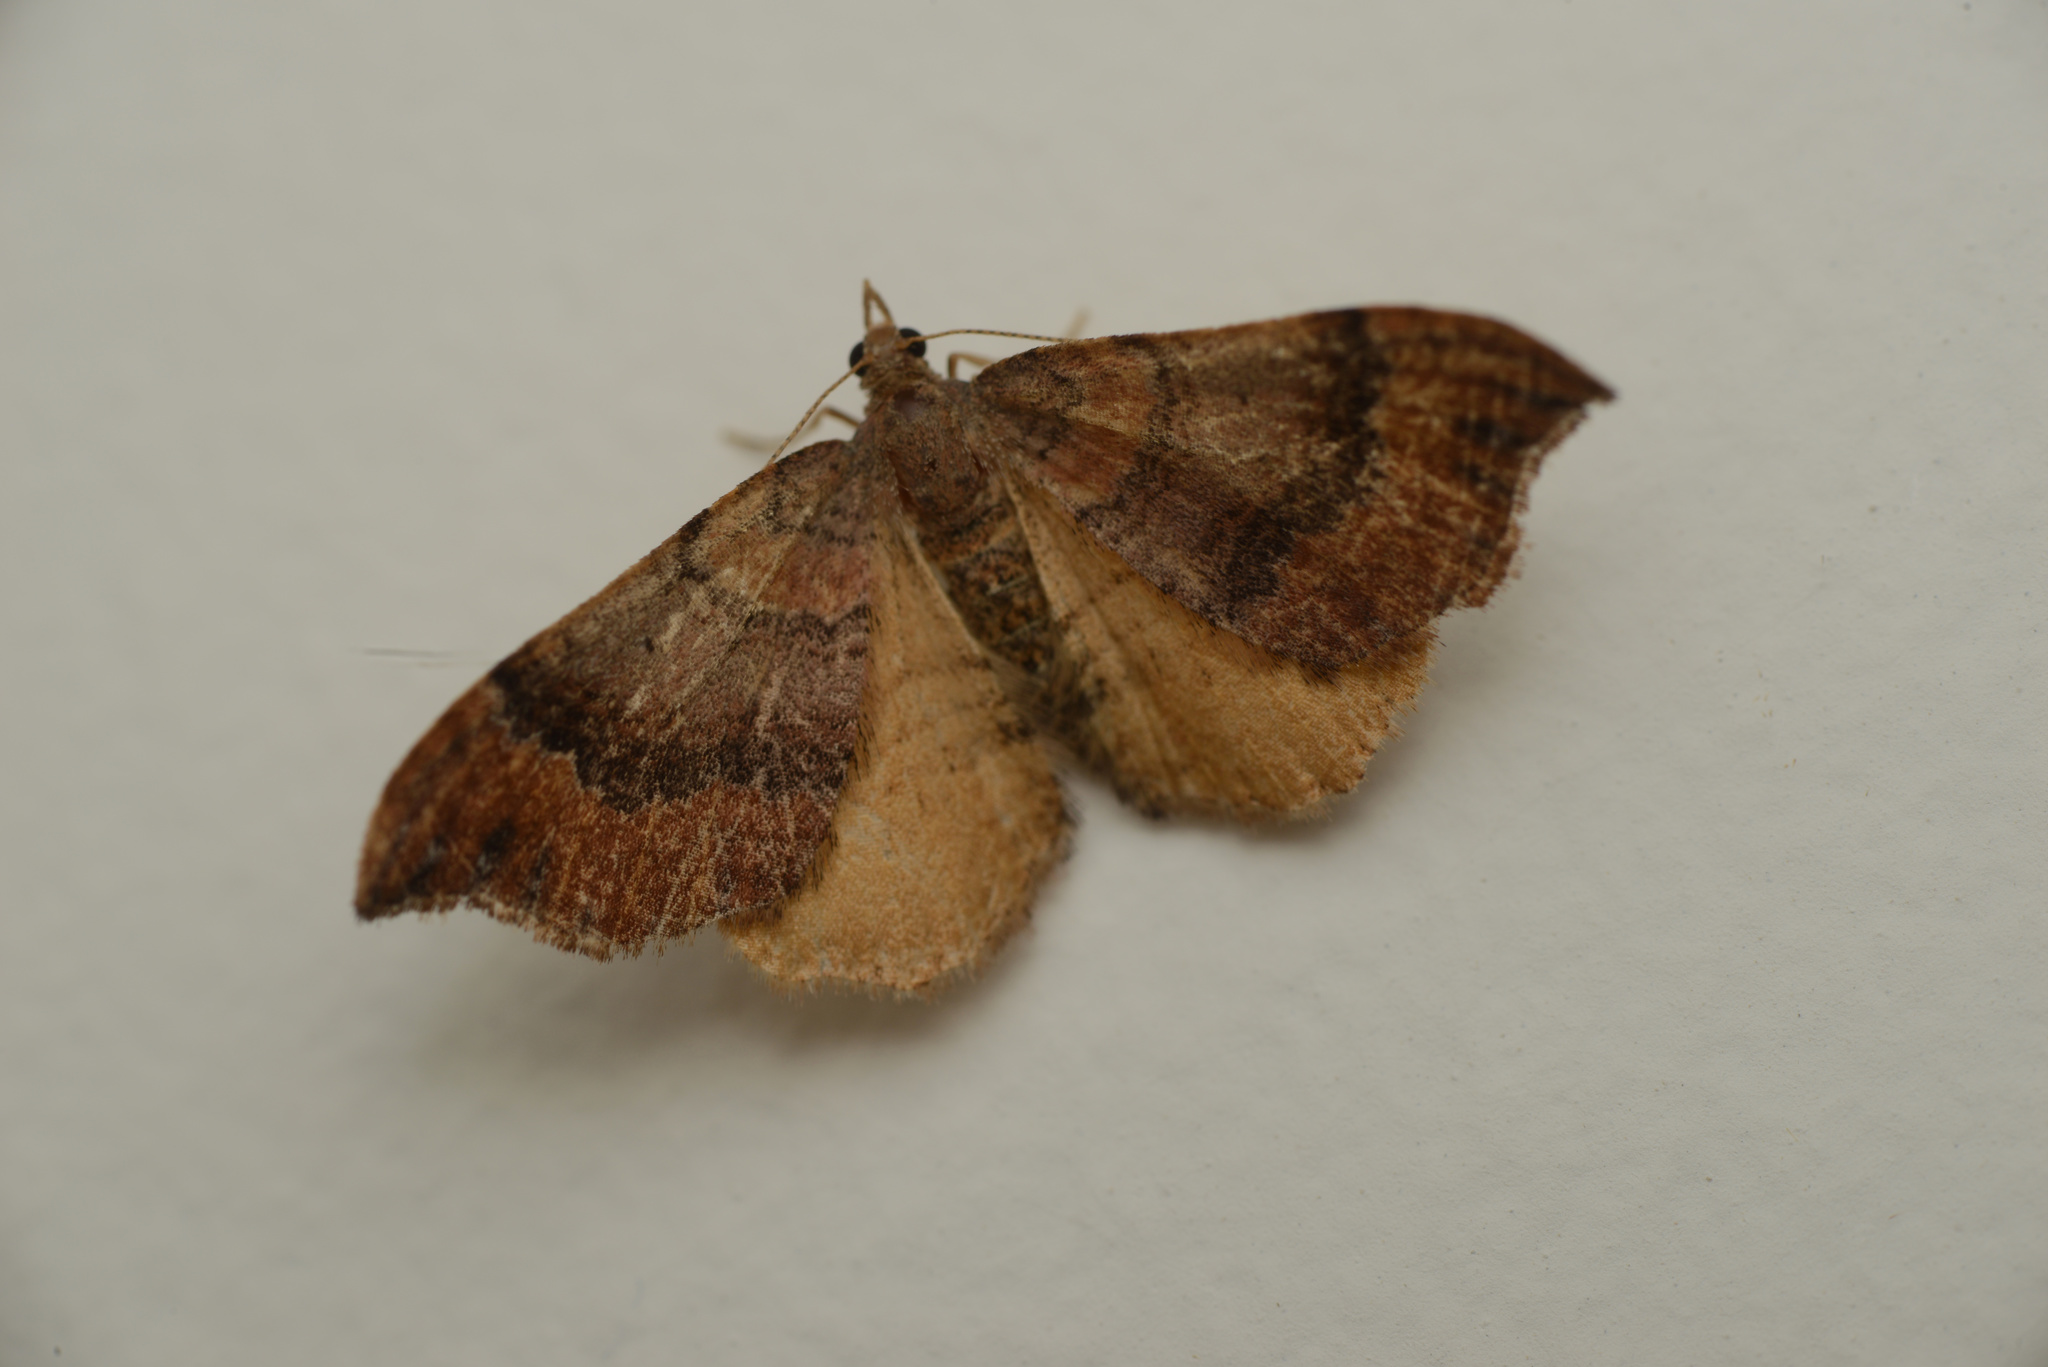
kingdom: Animalia
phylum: Arthropoda
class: Insecta
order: Lepidoptera
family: Geometridae
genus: Homodotis
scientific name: Homodotis megaspilata
